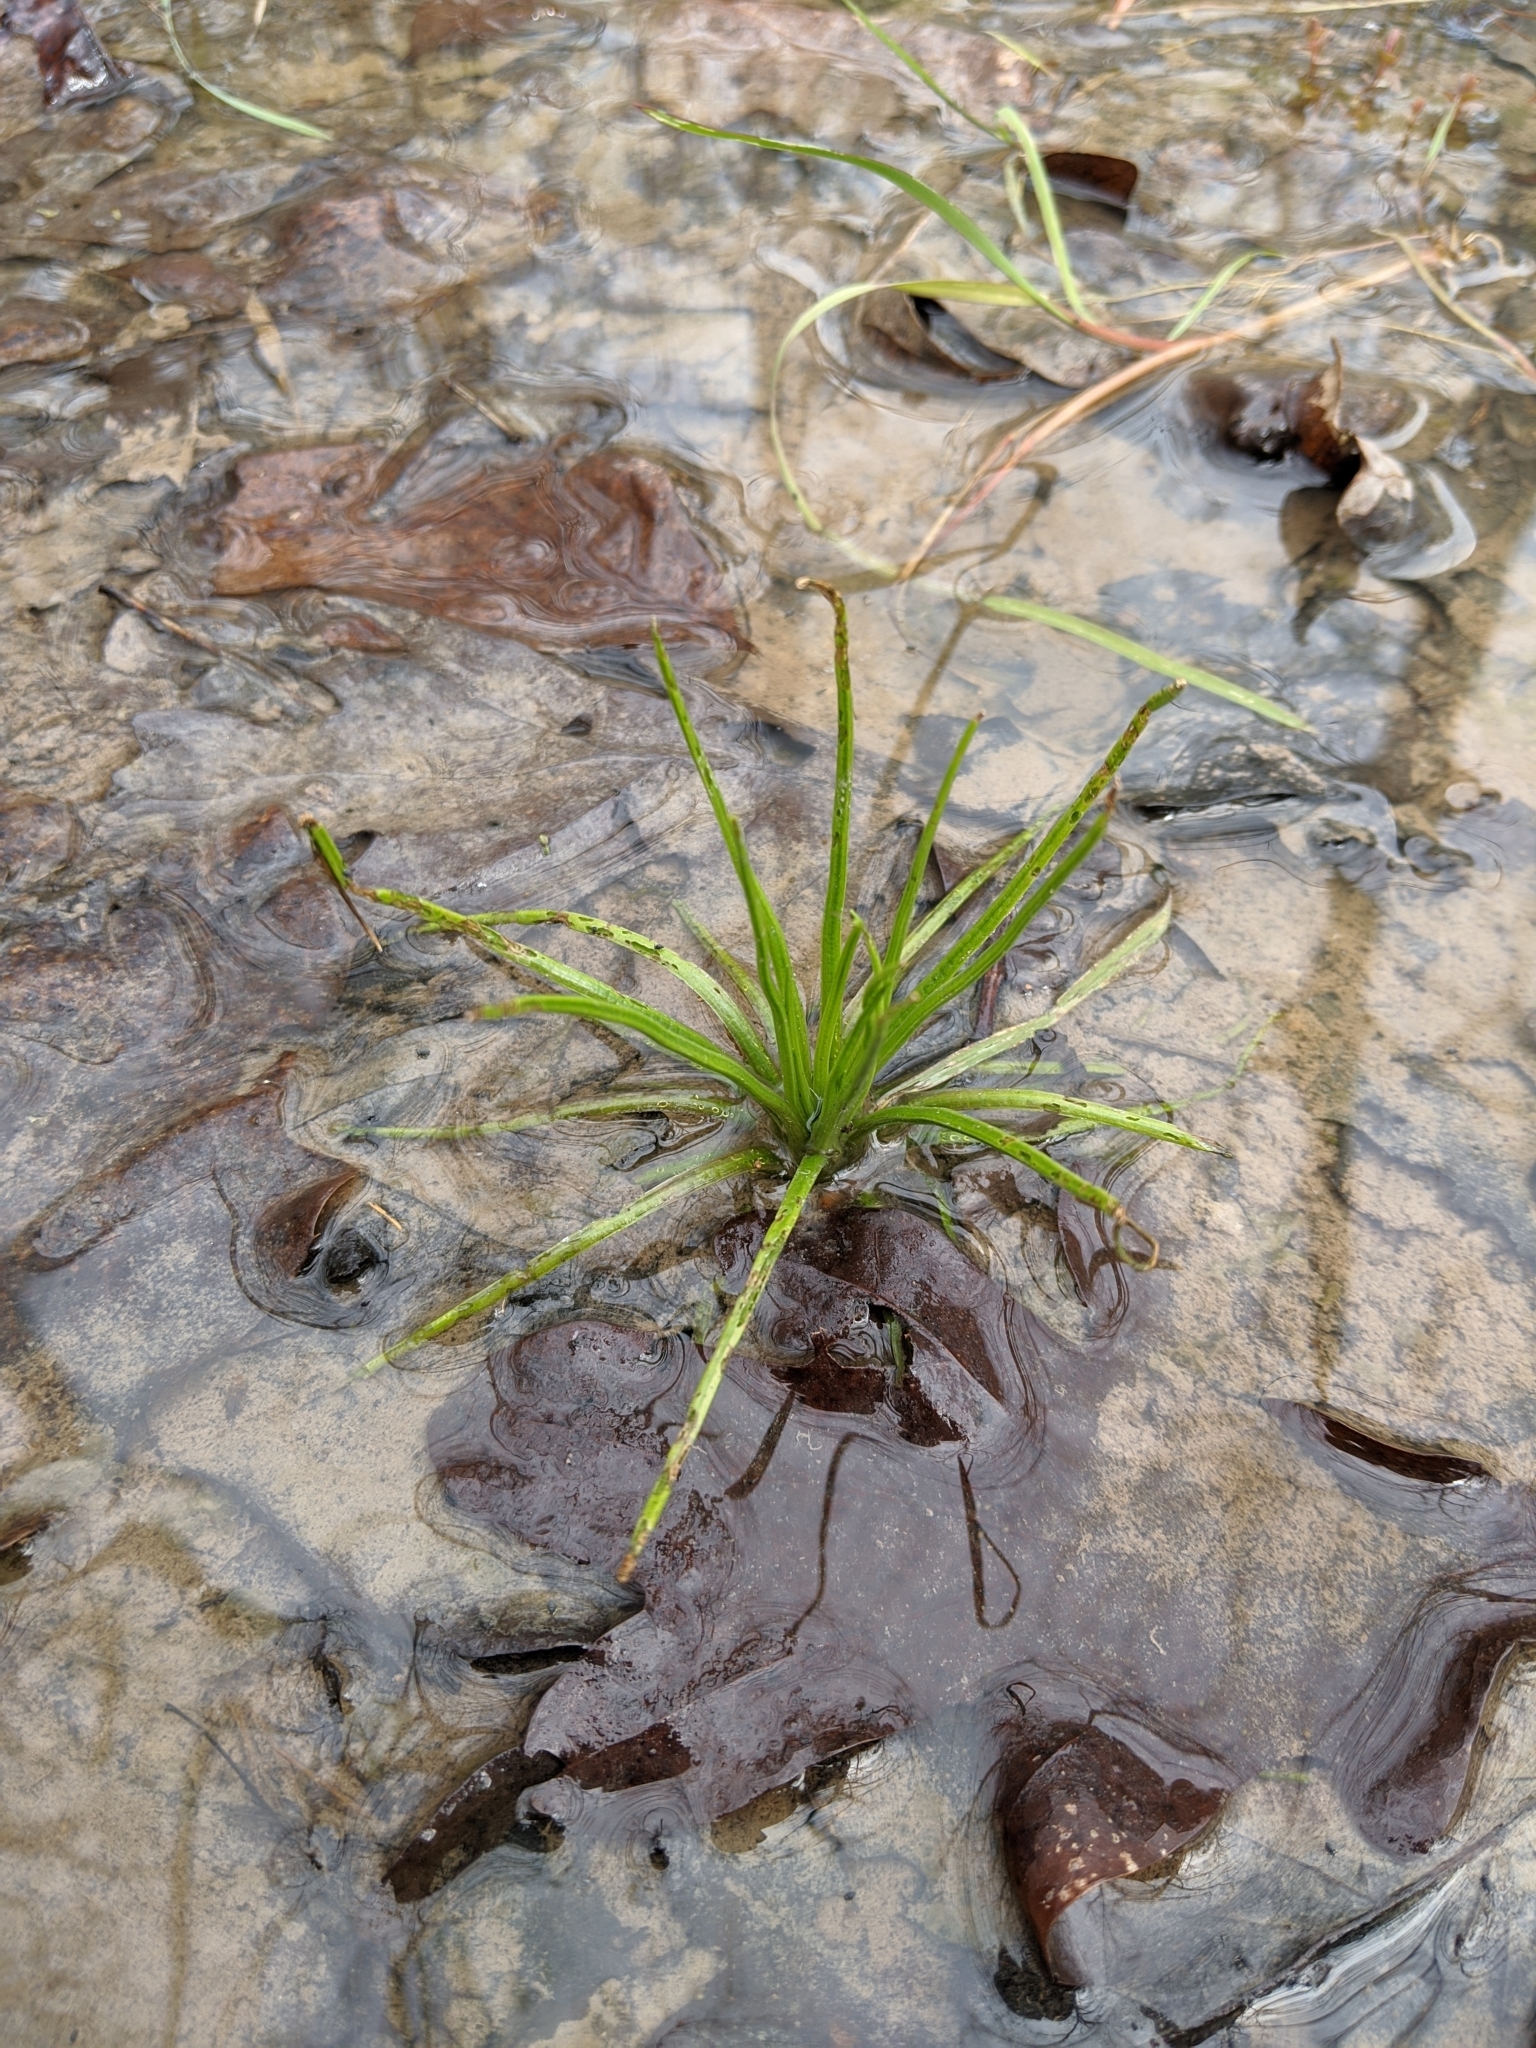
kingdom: Plantae
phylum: Tracheophyta
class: Lycopodiopsida
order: Isoetales
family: Isoetaceae
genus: Isoetes
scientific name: Isoetes engelmannii
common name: Engelmann's quillwort
